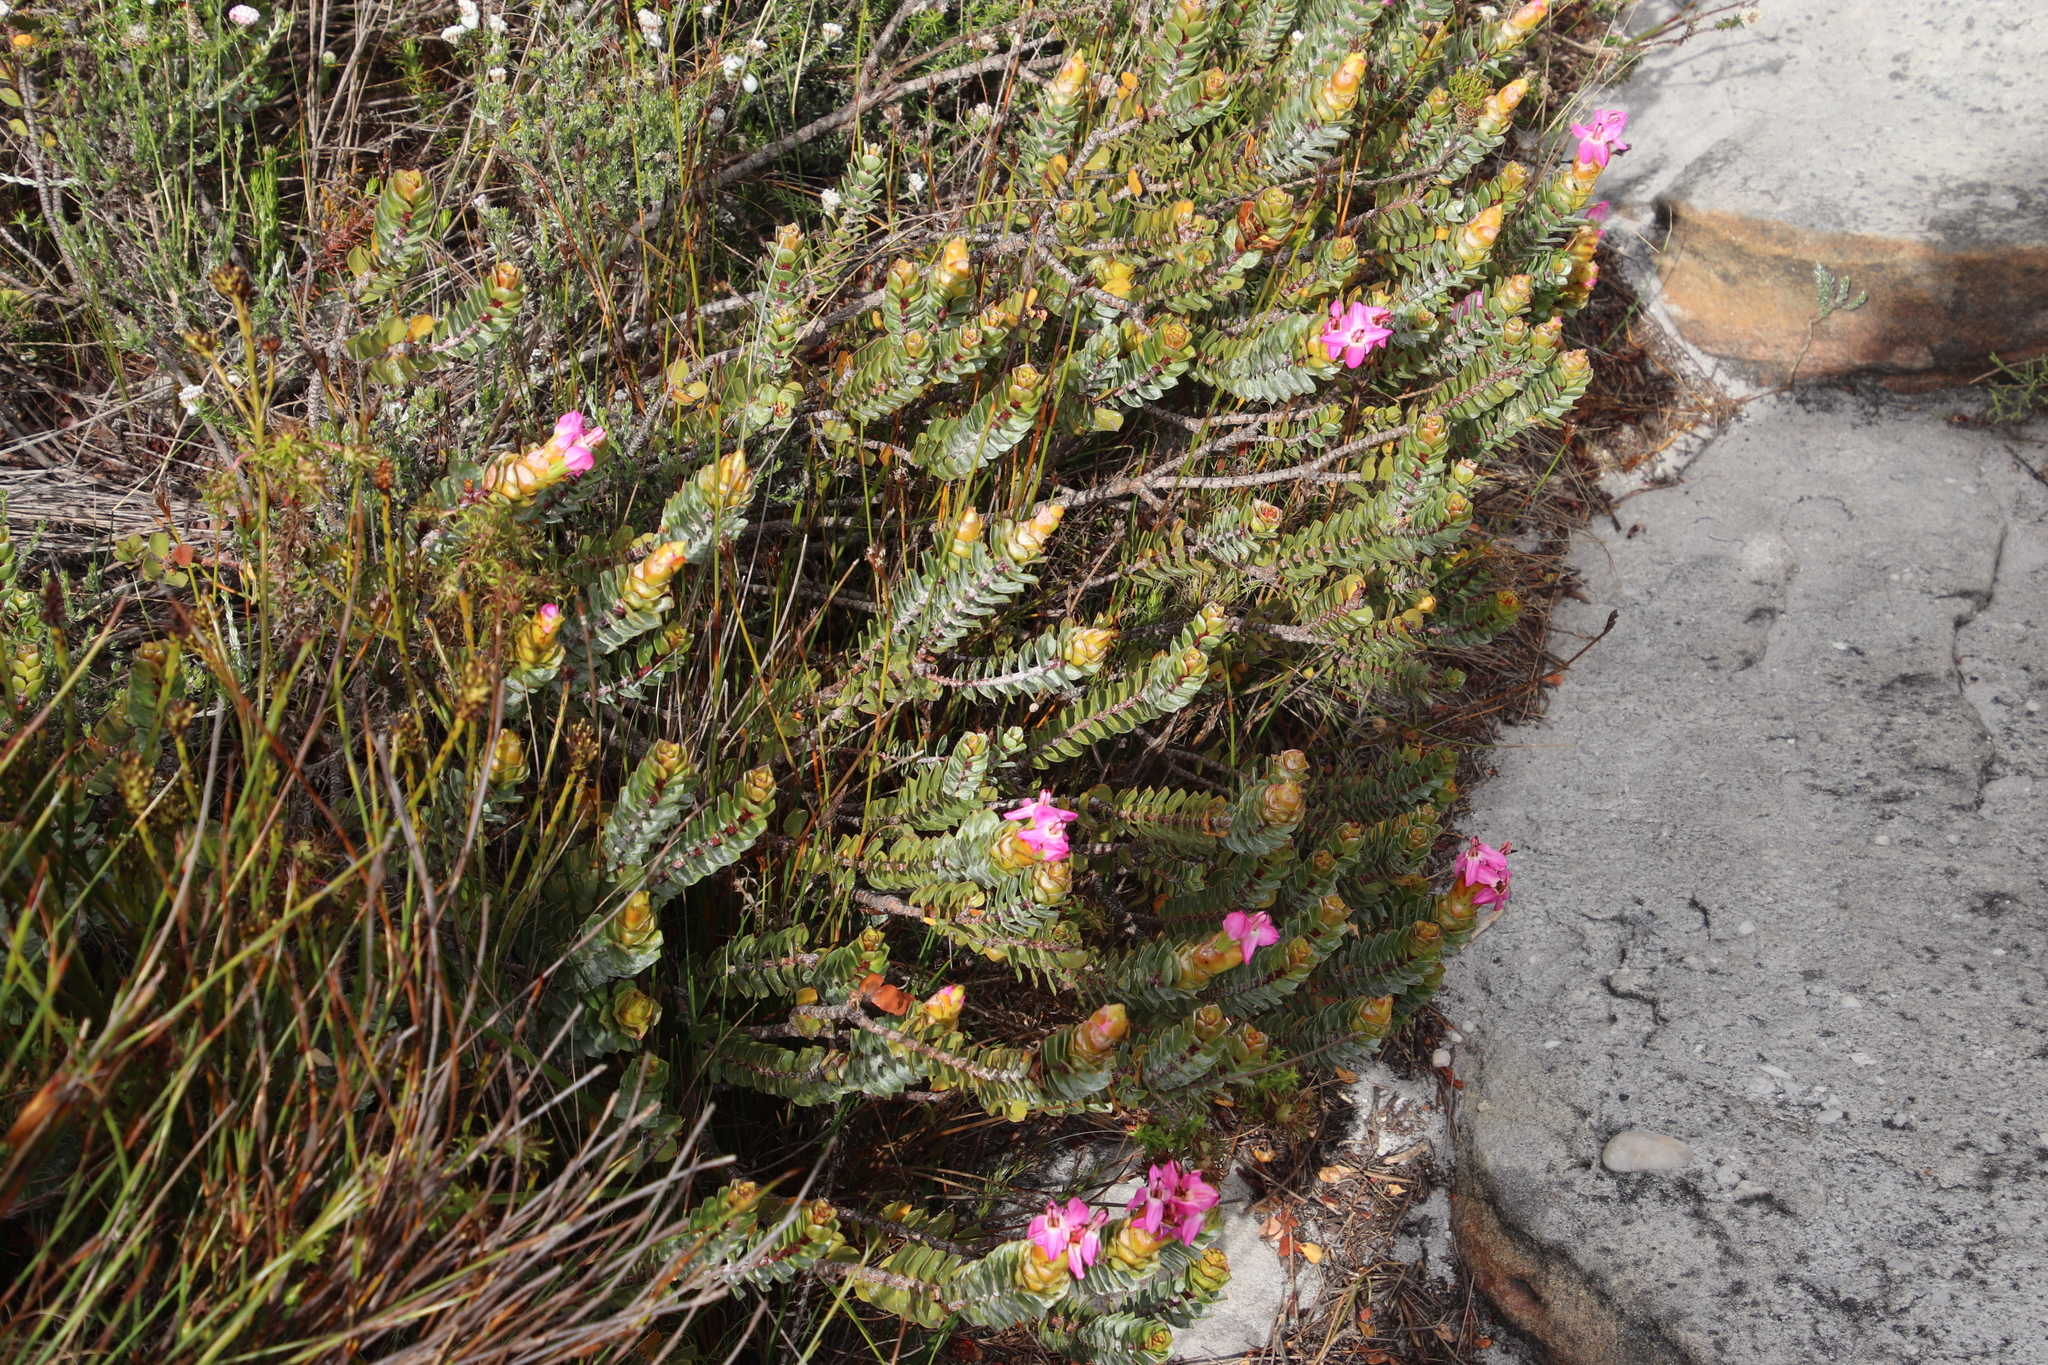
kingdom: Plantae
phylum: Tracheophyta
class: Magnoliopsida
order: Myrtales
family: Penaeaceae
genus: Saltera
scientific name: Saltera sarcocolla
